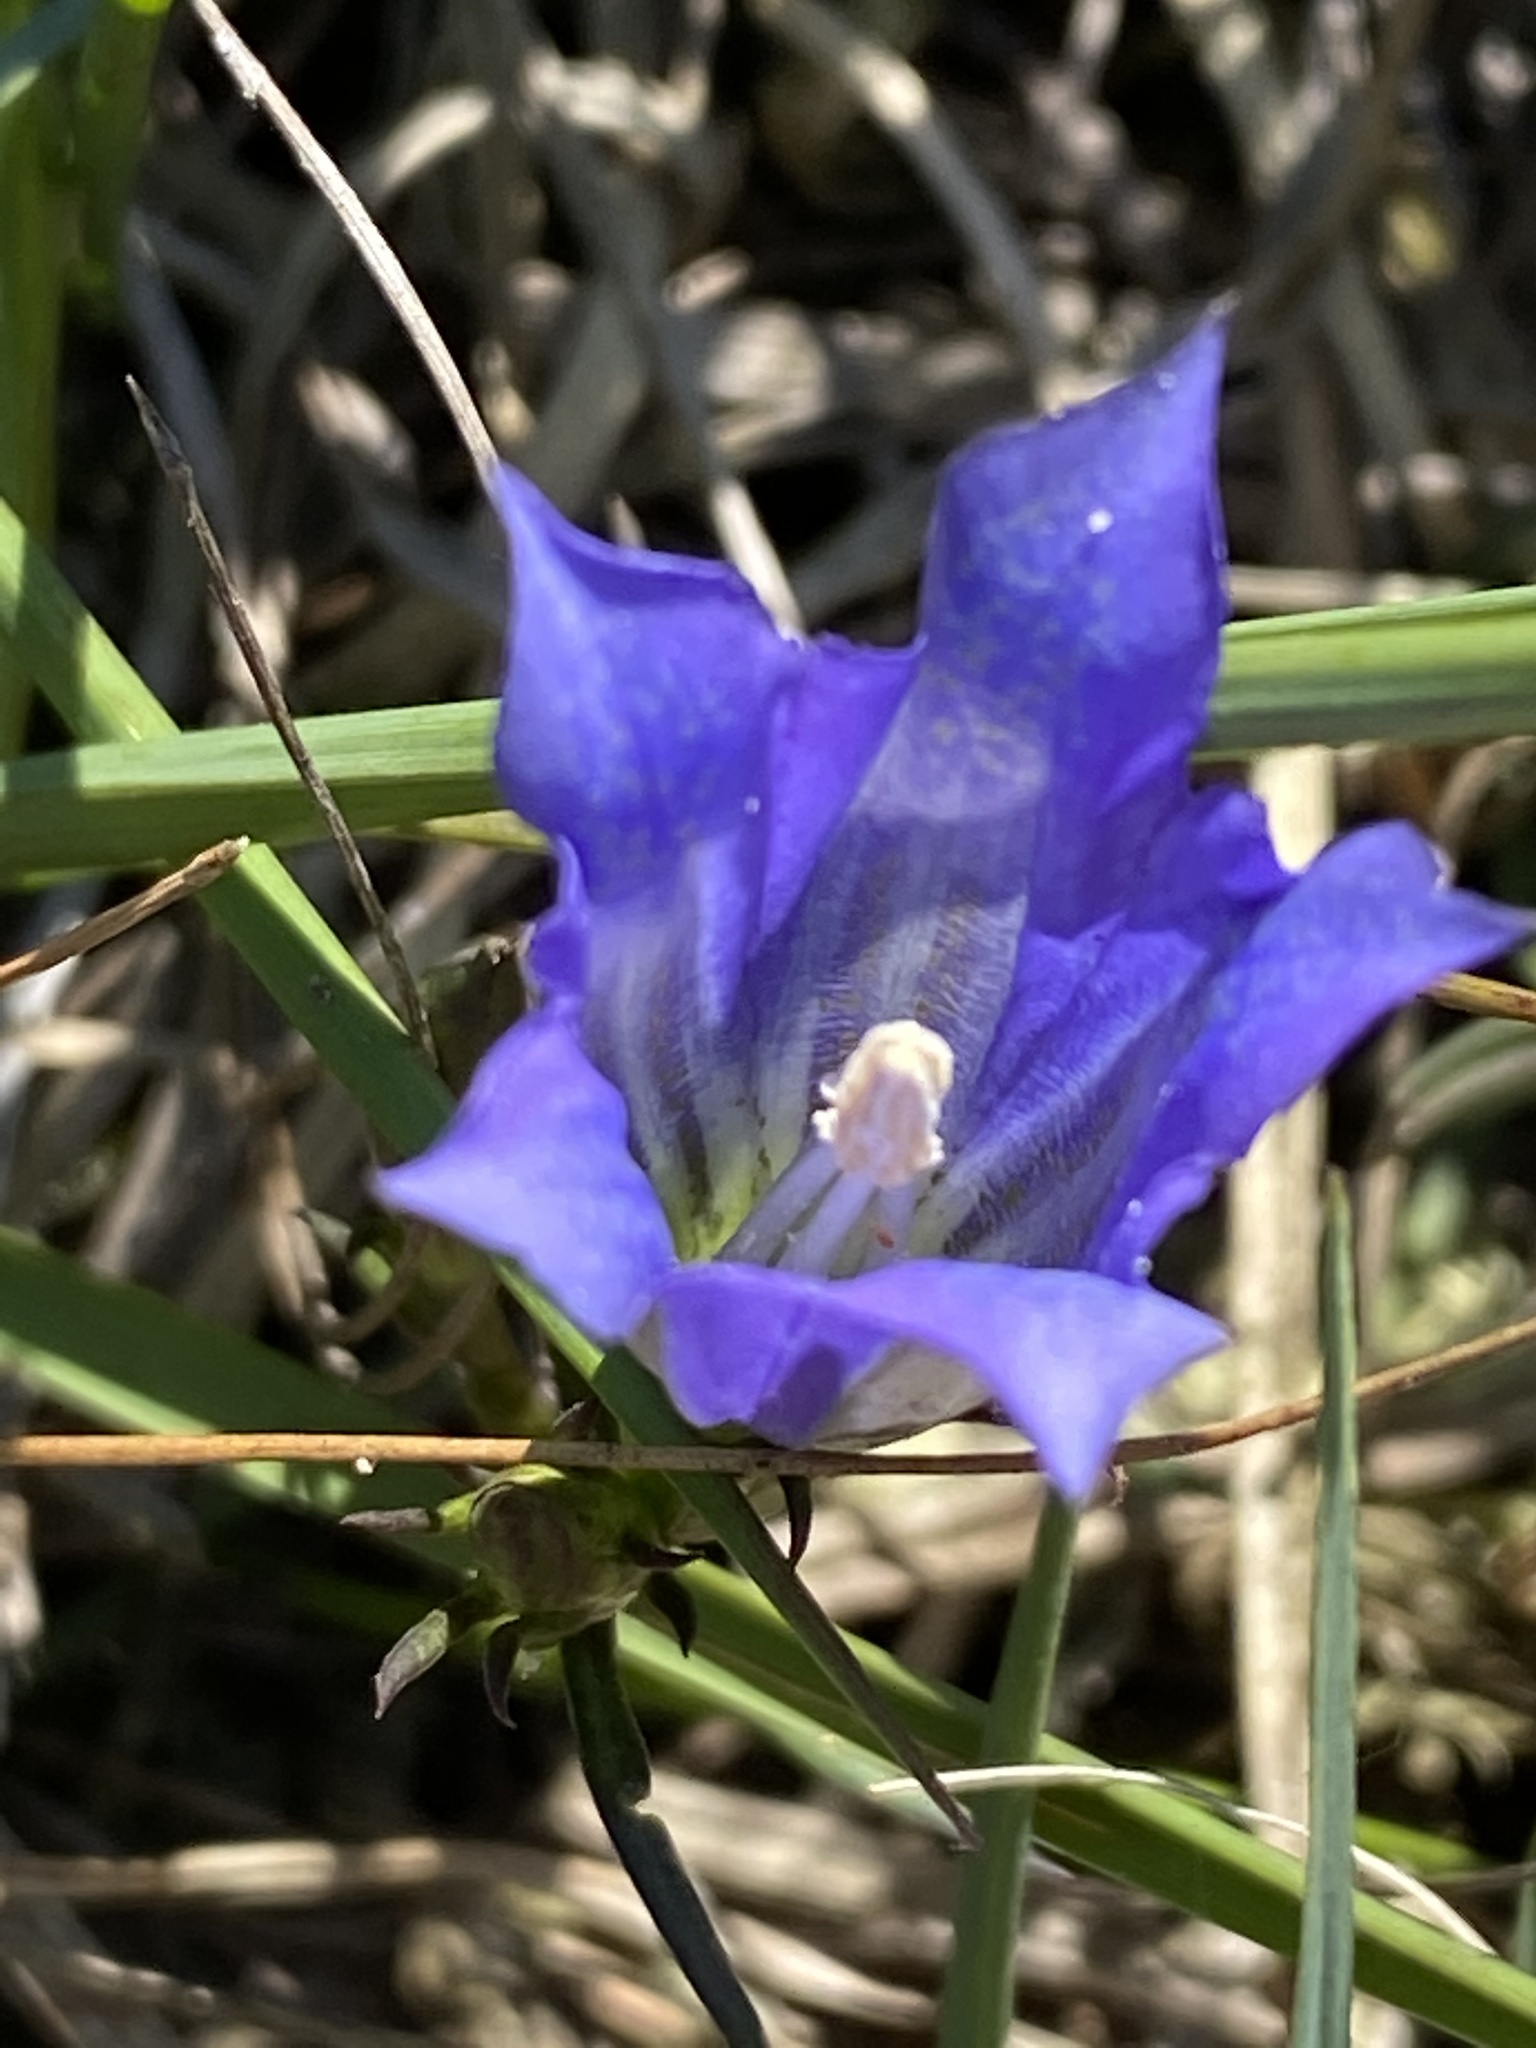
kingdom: Plantae
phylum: Tracheophyta
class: Magnoliopsida
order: Gentianales
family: Gentianaceae
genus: Gentiana
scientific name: Gentiana pneumonanthe
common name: Marsh gentian
